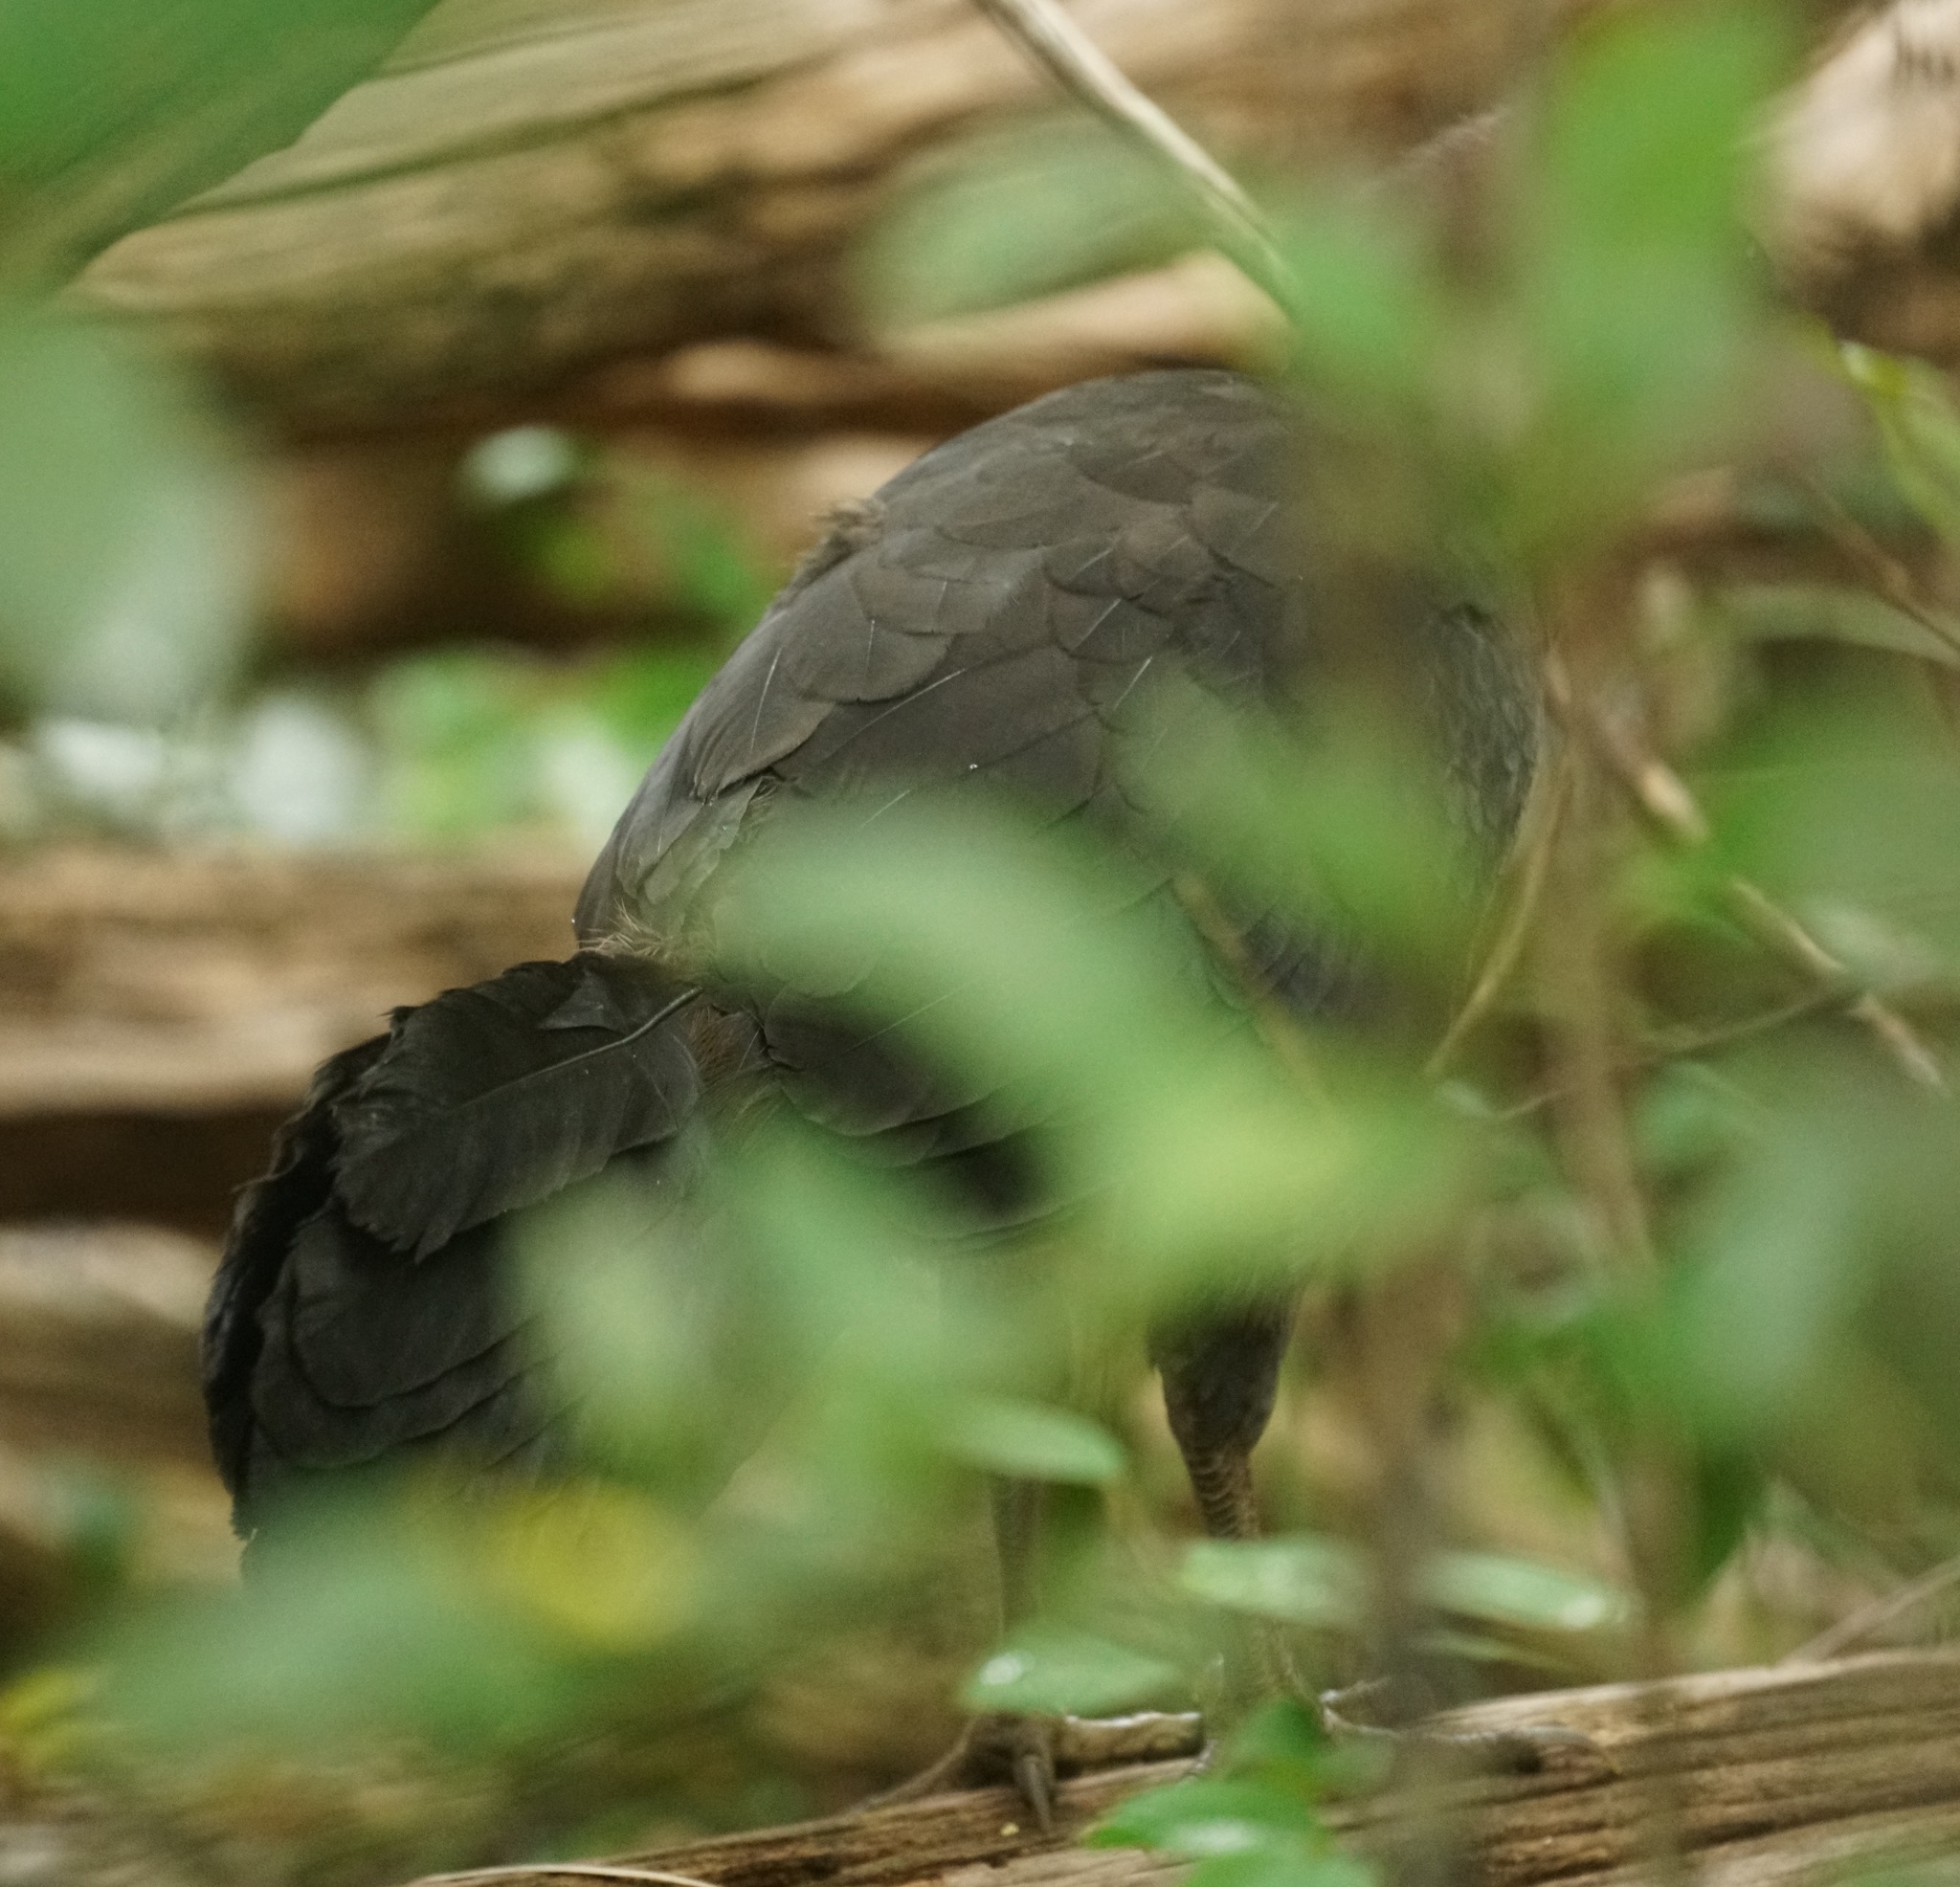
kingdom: Animalia
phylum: Chordata
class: Aves
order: Galliformes
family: Megapodiidae
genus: Alectura
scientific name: Alectura lathami
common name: Australian brushturkey
